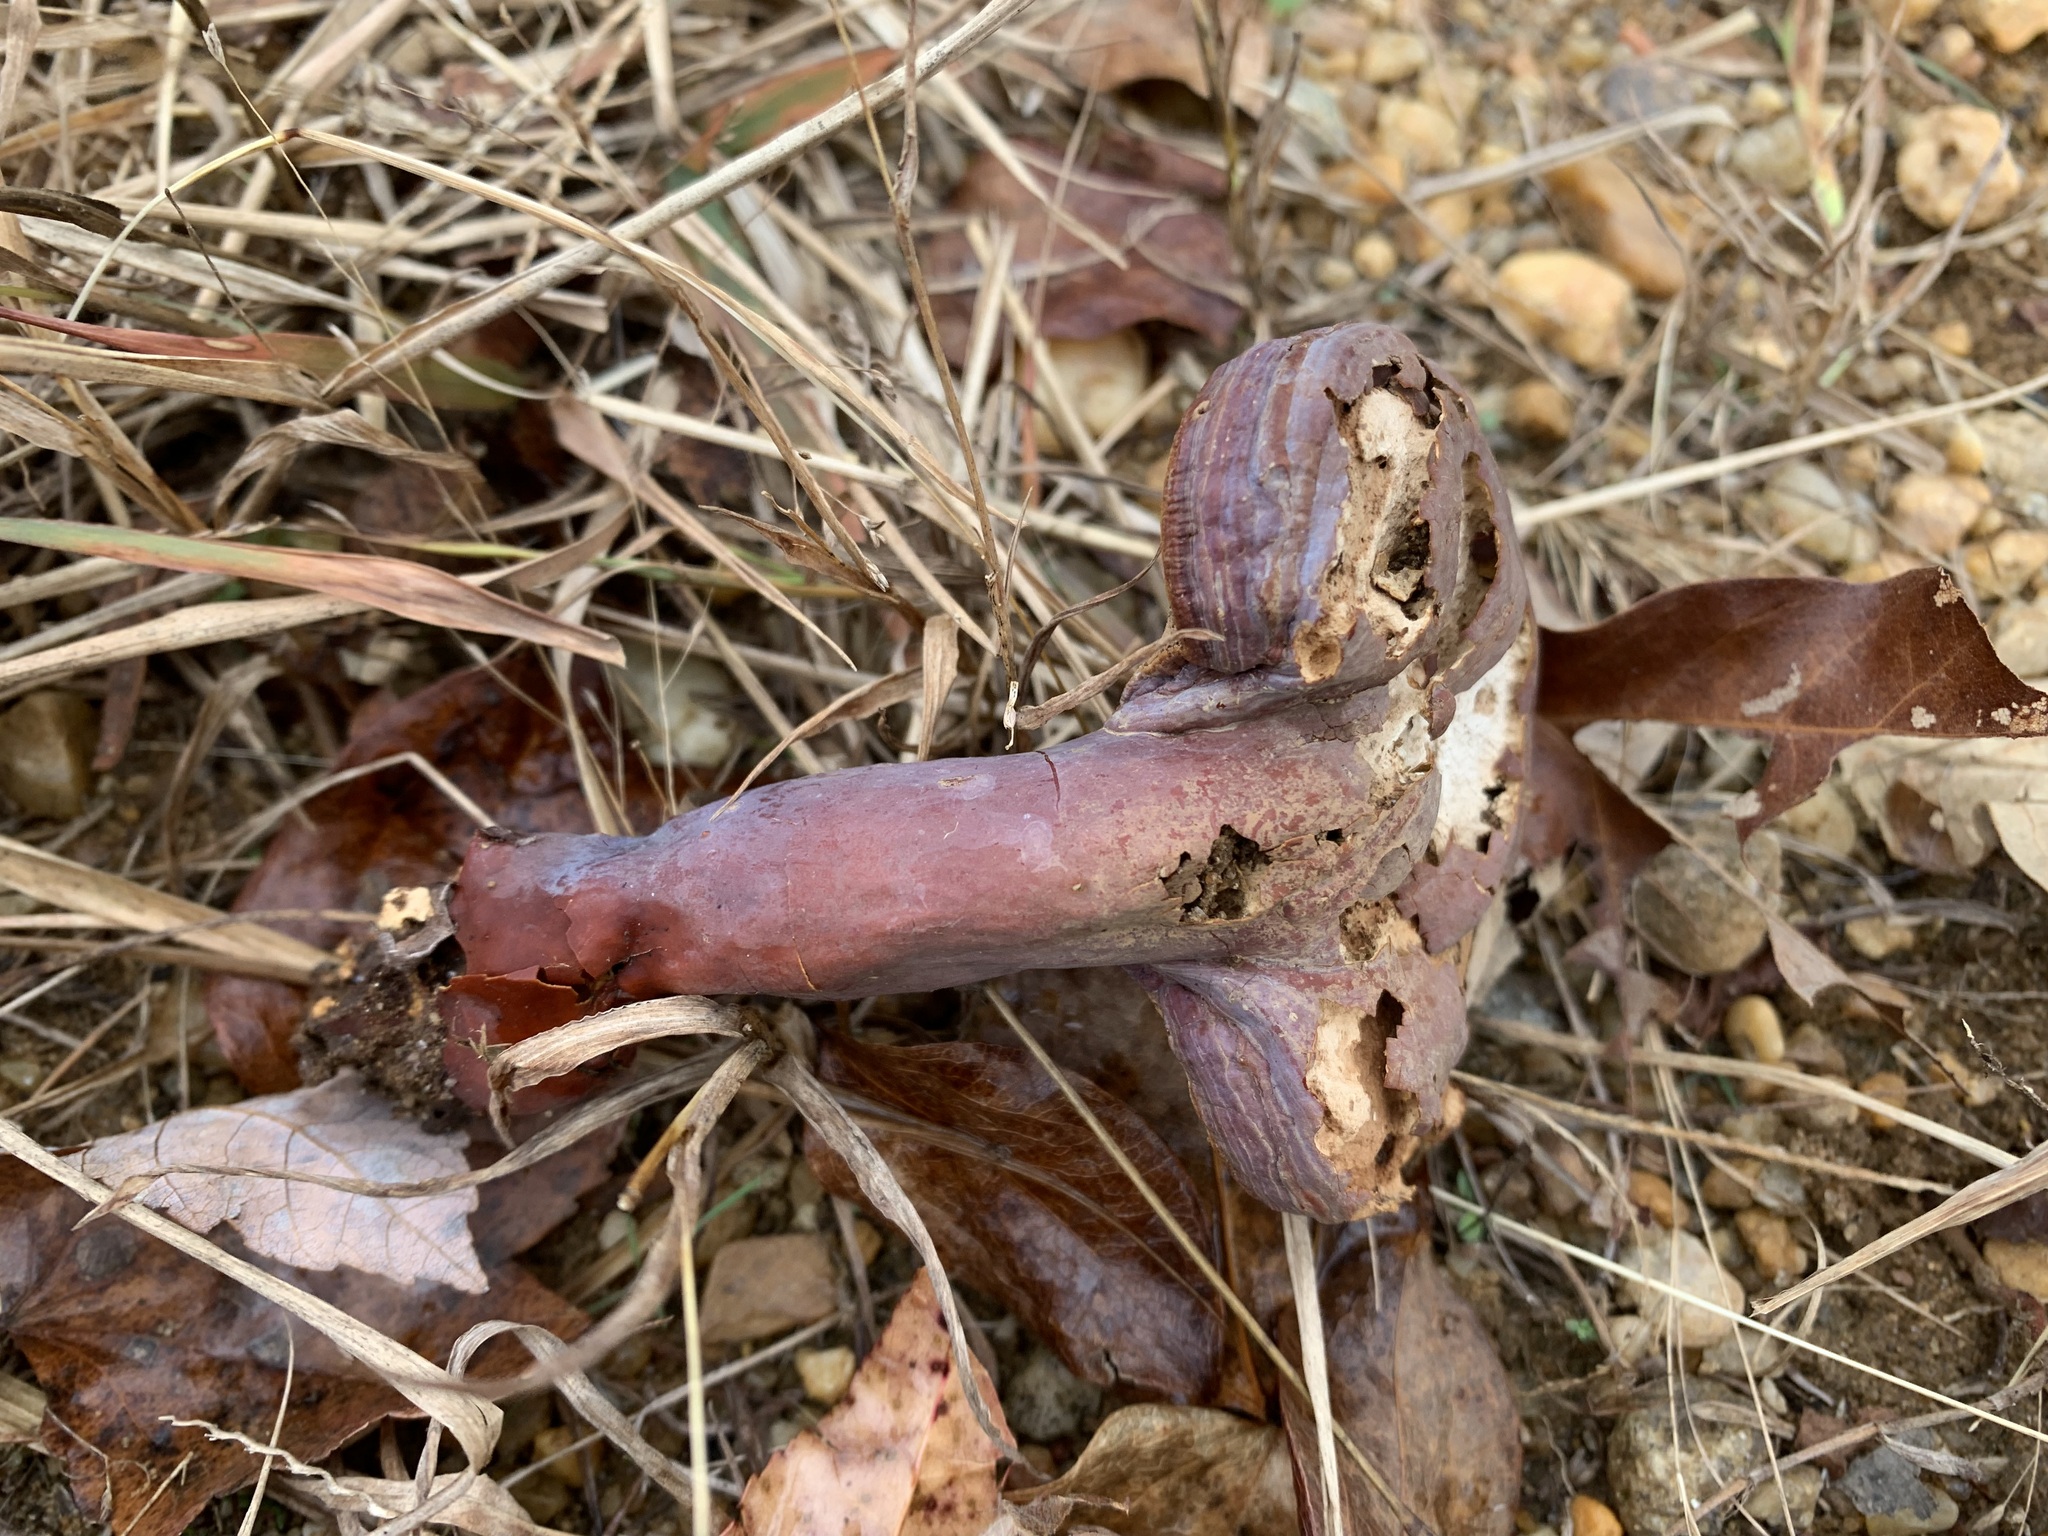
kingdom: Fungi
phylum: Basidiomycota
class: Agaricomycetes
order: Polyporales
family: Polyporaceae
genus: Ganoderma
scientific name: Ganoderma curtisii
